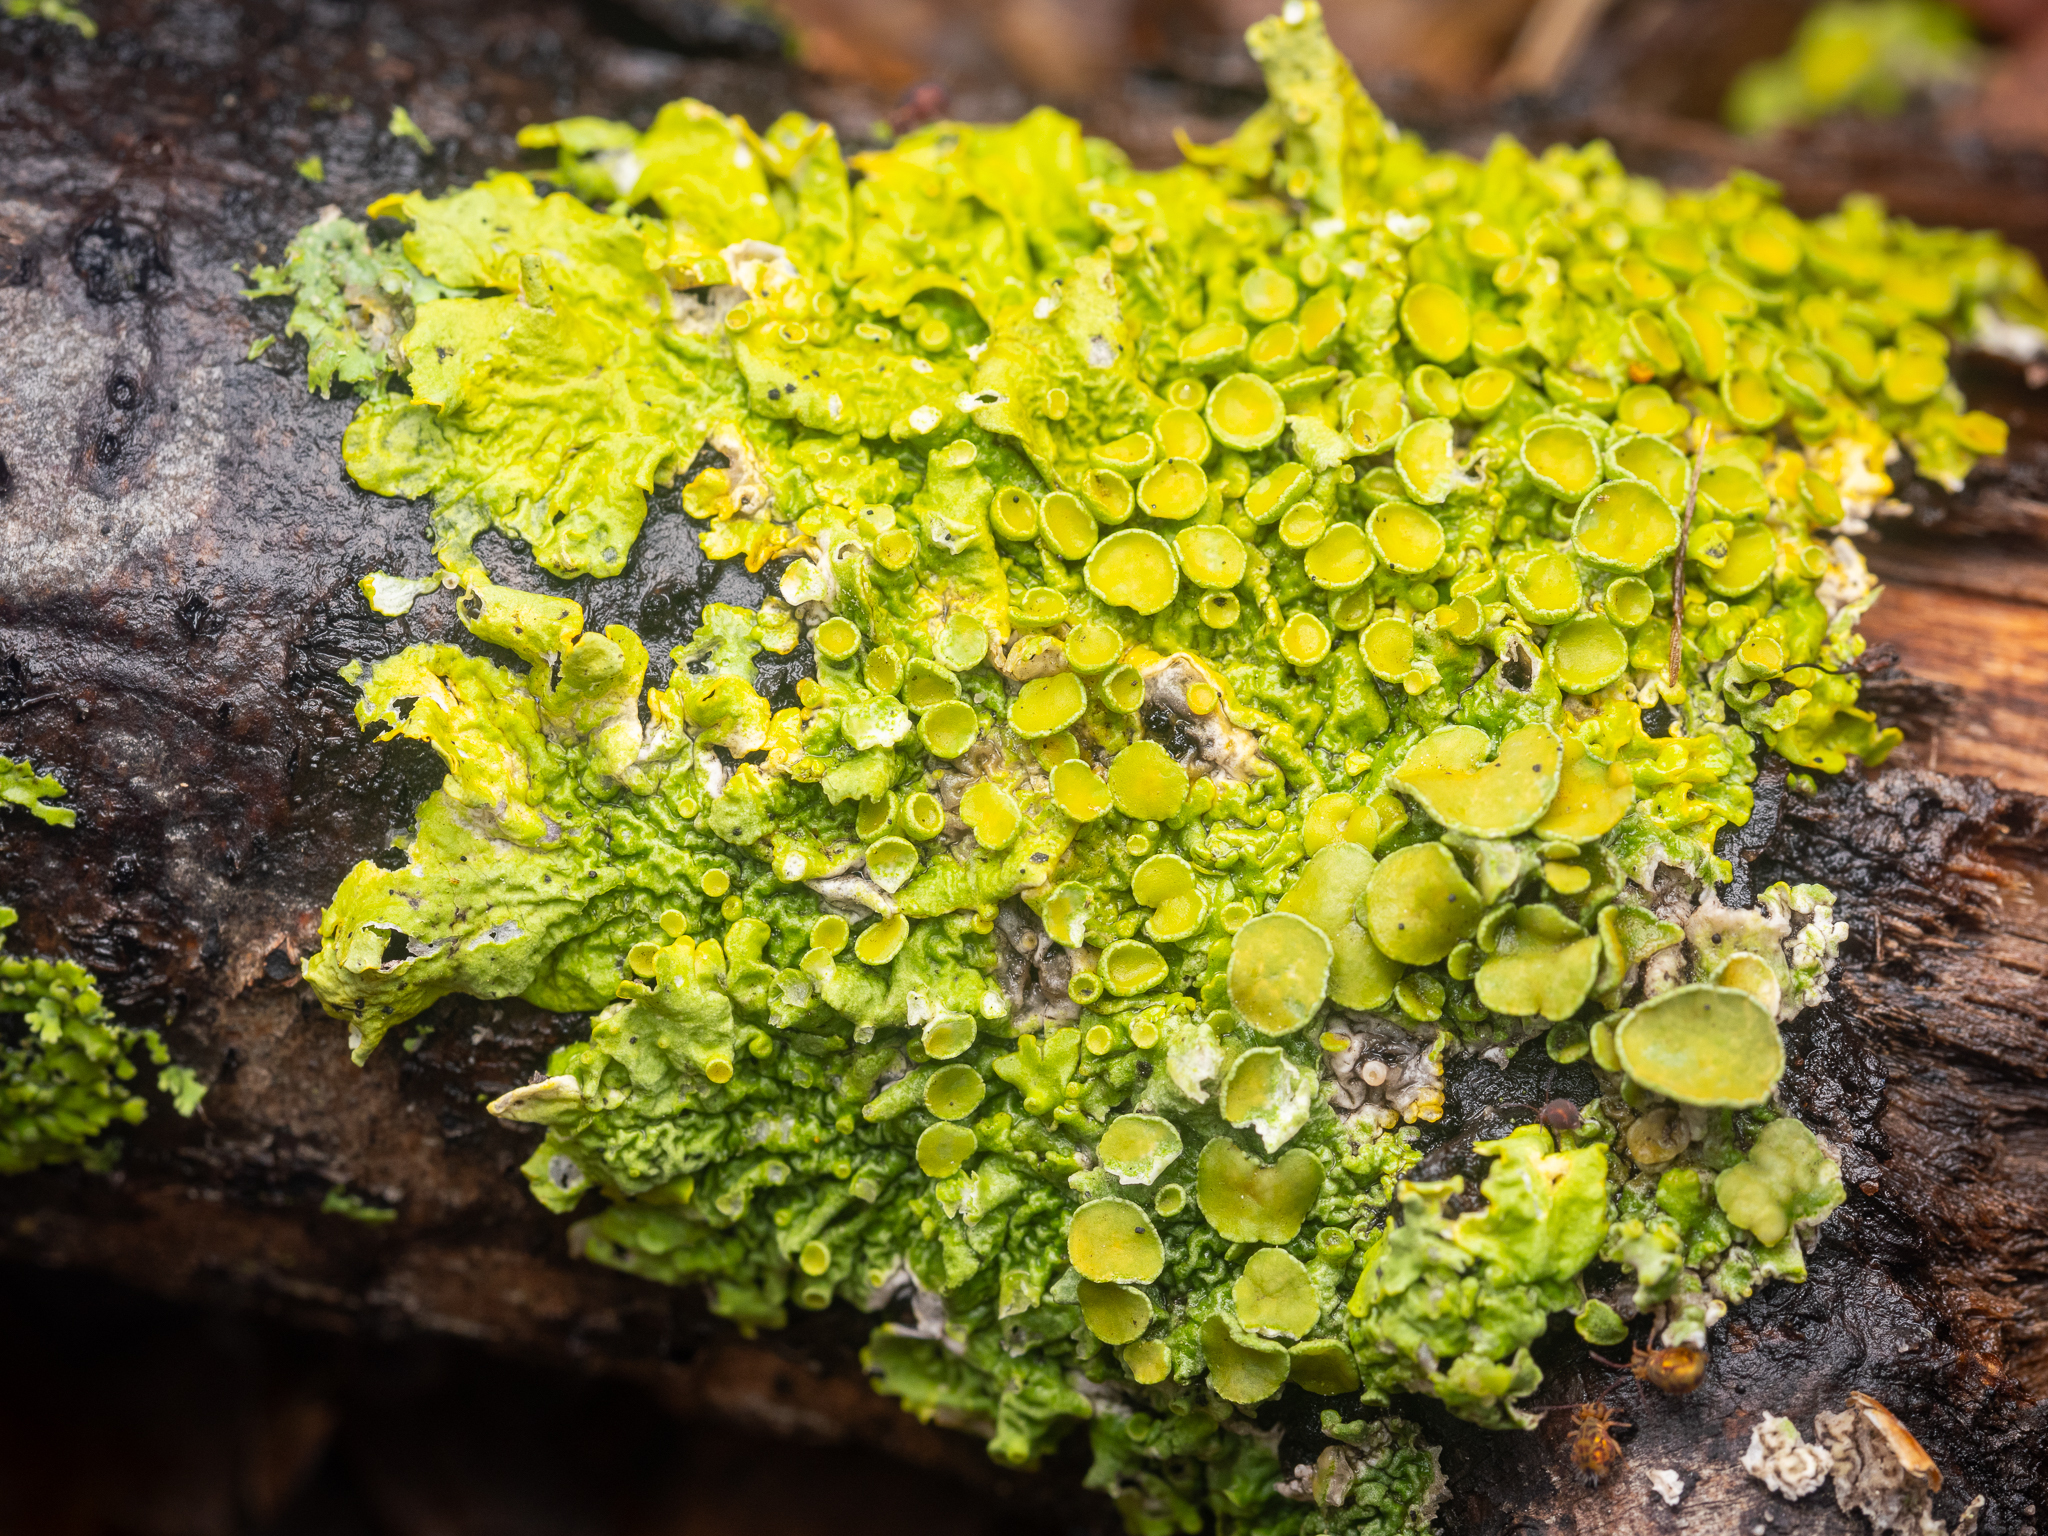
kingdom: Fungi
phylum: Ascomycota
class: Lecanoromycetes
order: Teloschistales
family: Teloschistaceae
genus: Xanthoria
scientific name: Xanthoria parietina
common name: Common orange lichen
